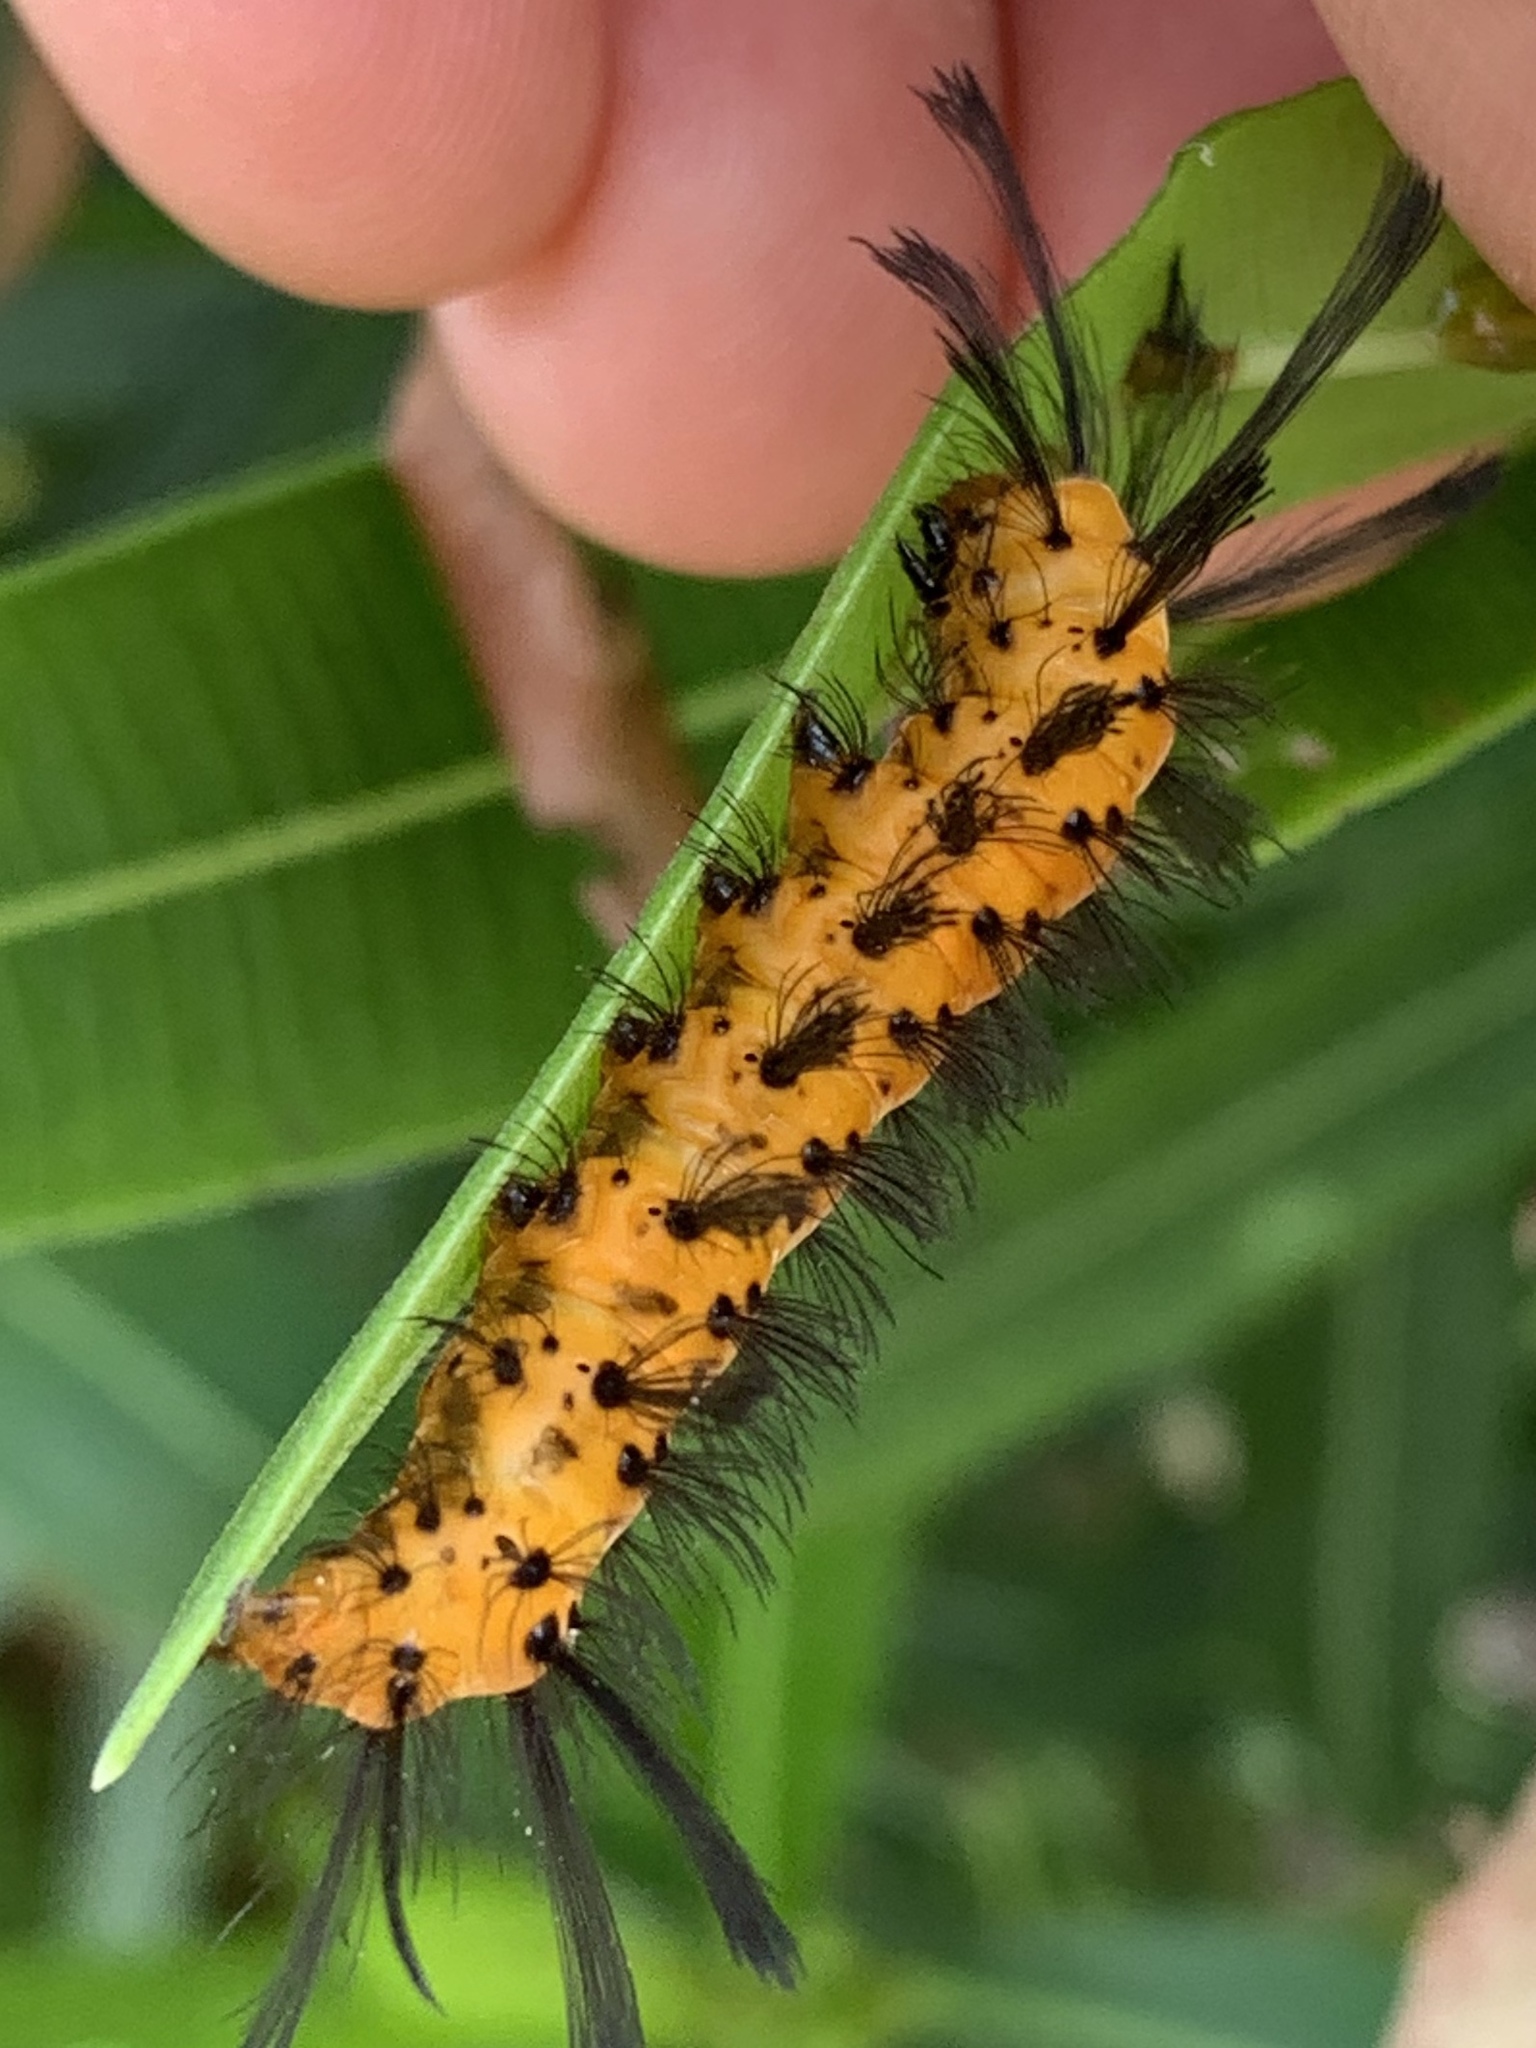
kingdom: Animalia
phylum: Arthropoda
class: Insecta
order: Lepidoptera
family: Erebidae
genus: Syntomeida
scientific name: Syntomeida epilais
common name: Polka-dot wasp moth
